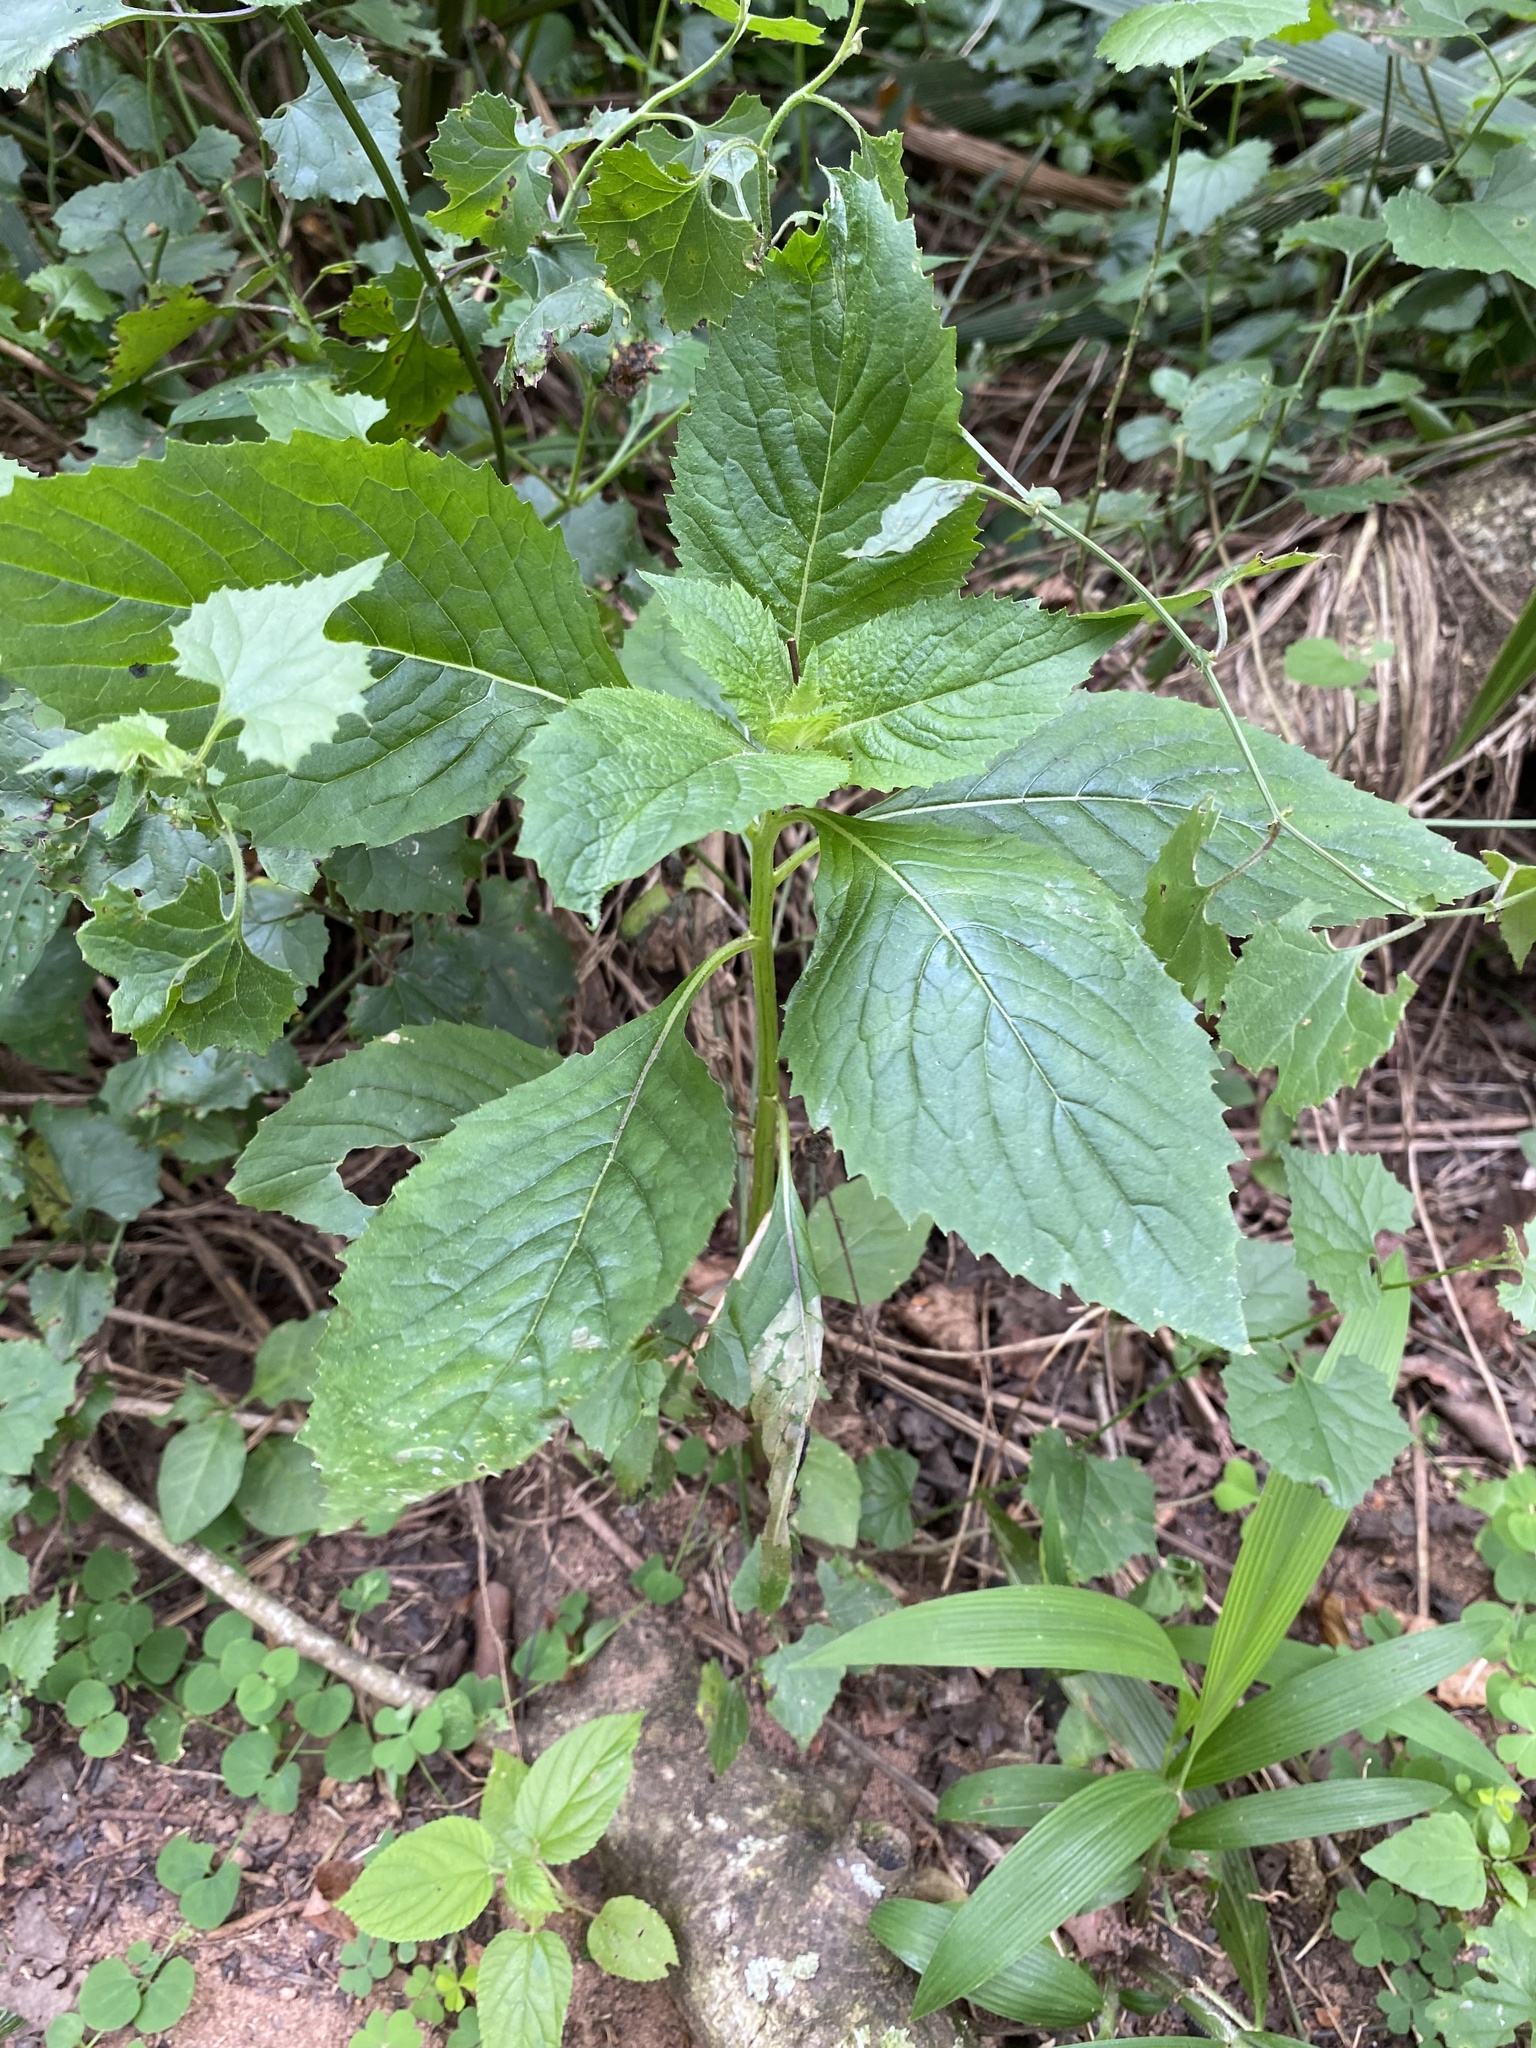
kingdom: Plantae
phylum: Tracheophyta
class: Magnoliopsida
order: Asterales
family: Asteraceae
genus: Crassocephalum
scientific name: Crassocephalum crepidioides
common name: Redflower ragleaf
